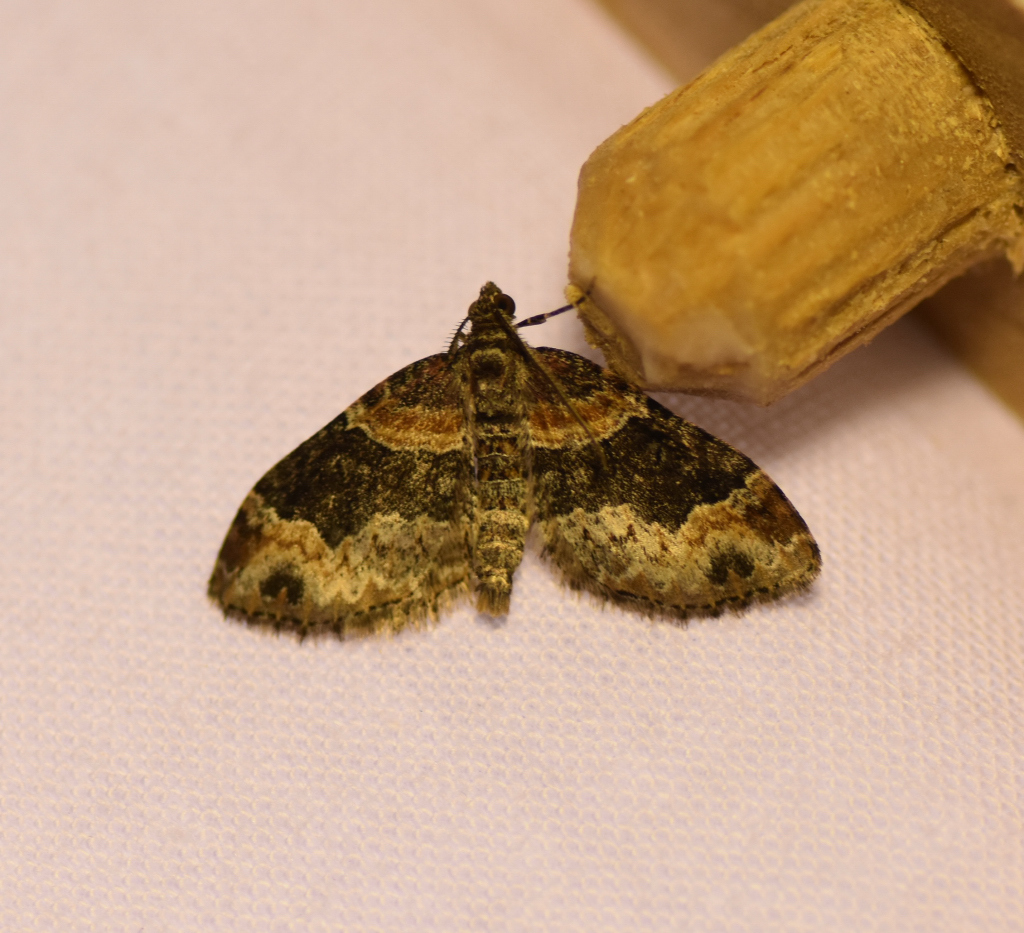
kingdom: Animalia
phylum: Arthropoda
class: Insecta
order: Lepidoptera
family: Geometridae
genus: Xanthorhoe
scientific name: Xanthorhoe ferrugata
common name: Dark-barred twin-spot carpet
